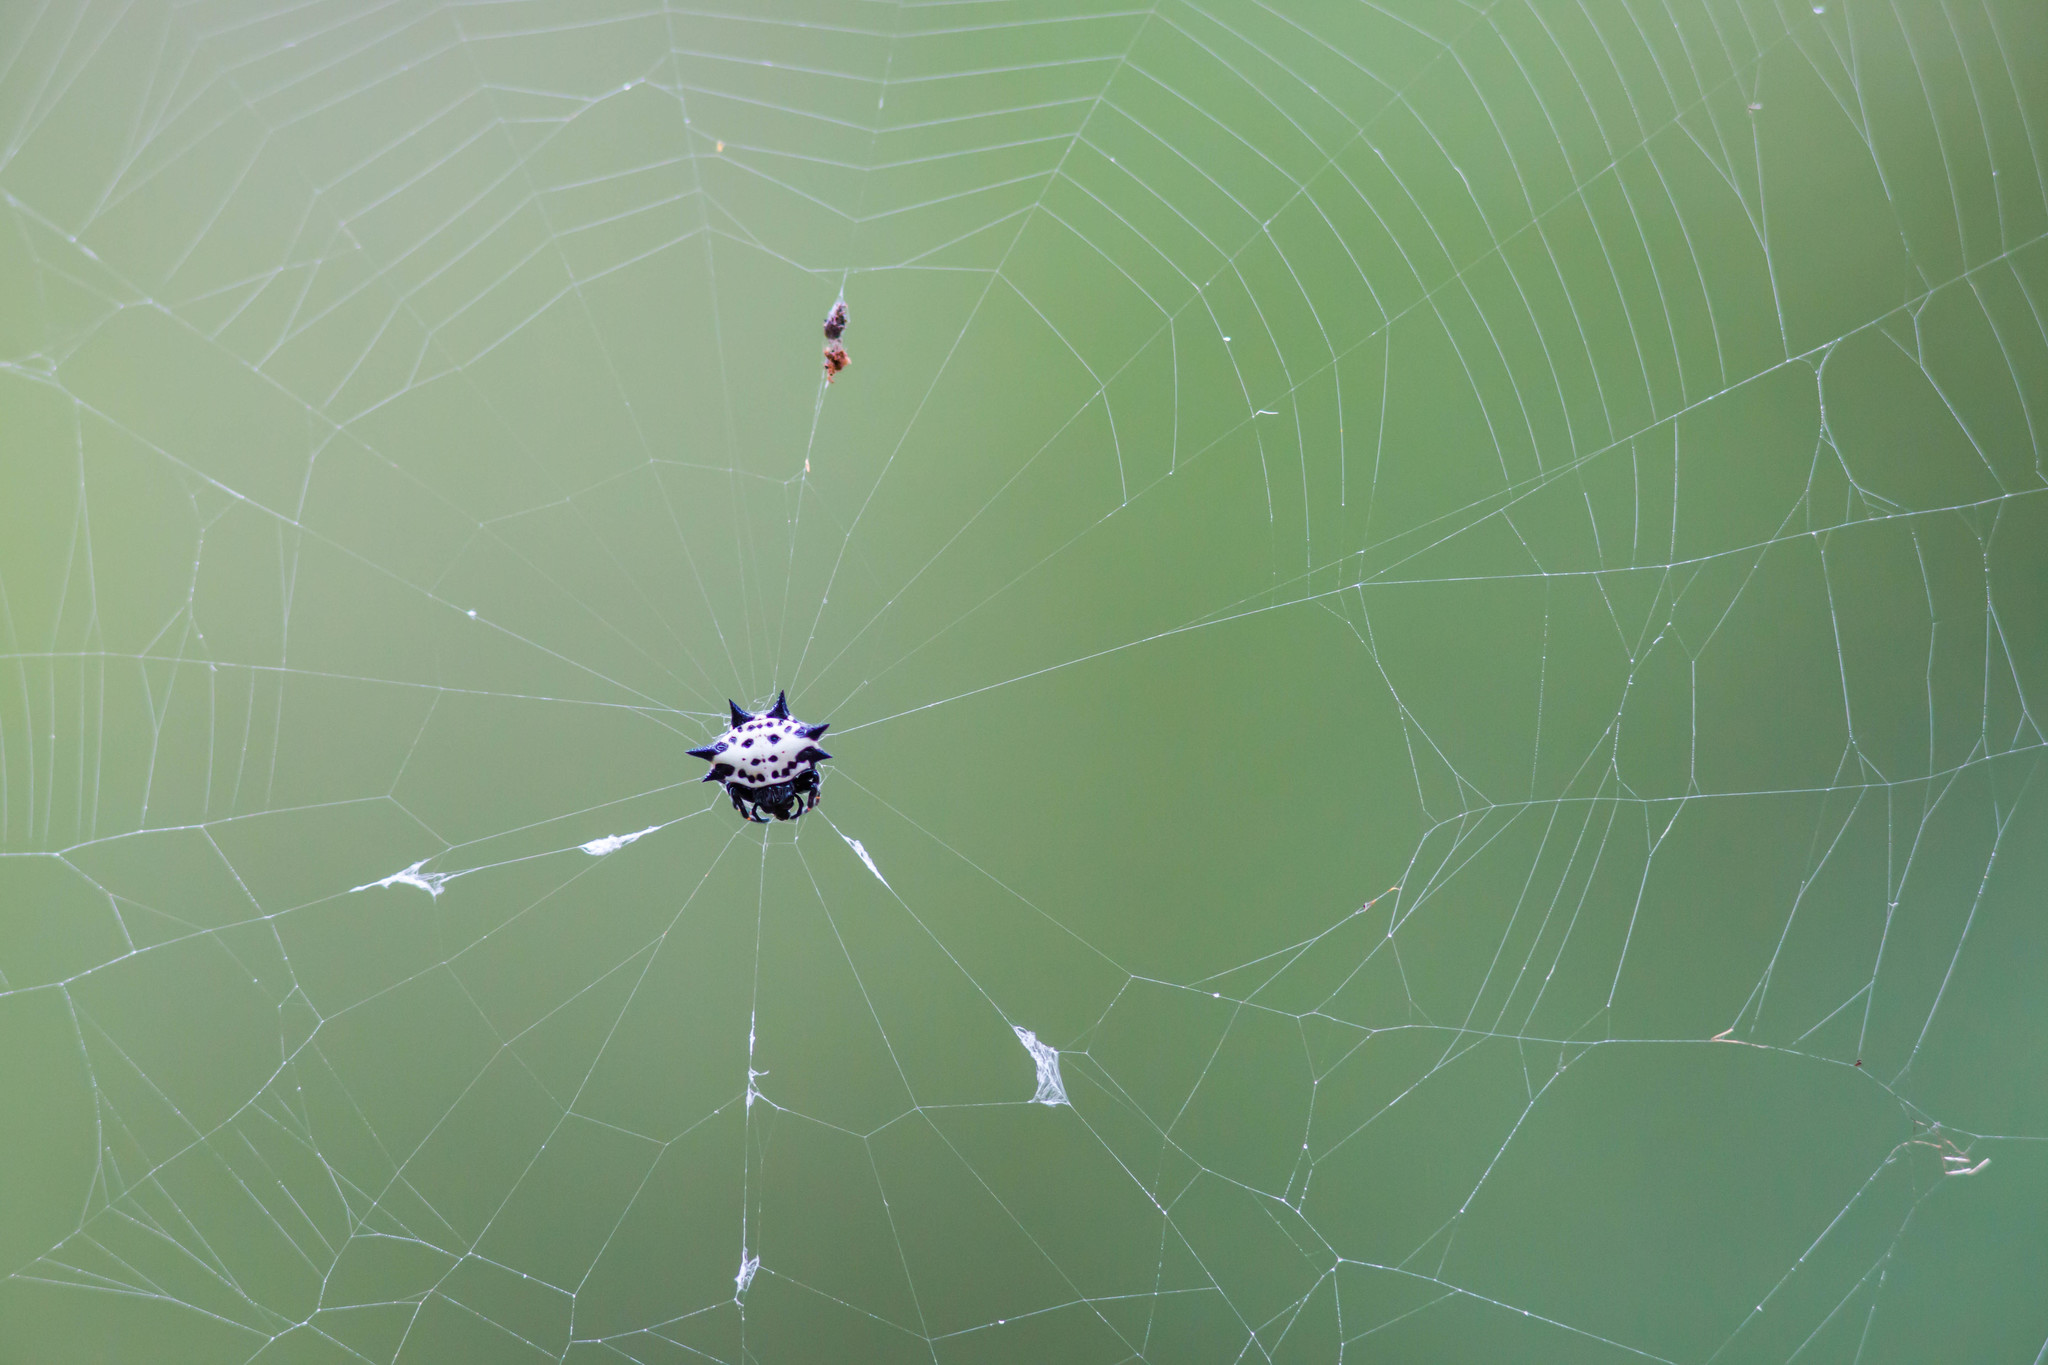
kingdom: Animalia
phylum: Arthropoda
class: Arachnida
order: Araneae
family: Araneidae
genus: Gasteracantha
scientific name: Gasteracantha cancriformis
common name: Orb weavers
